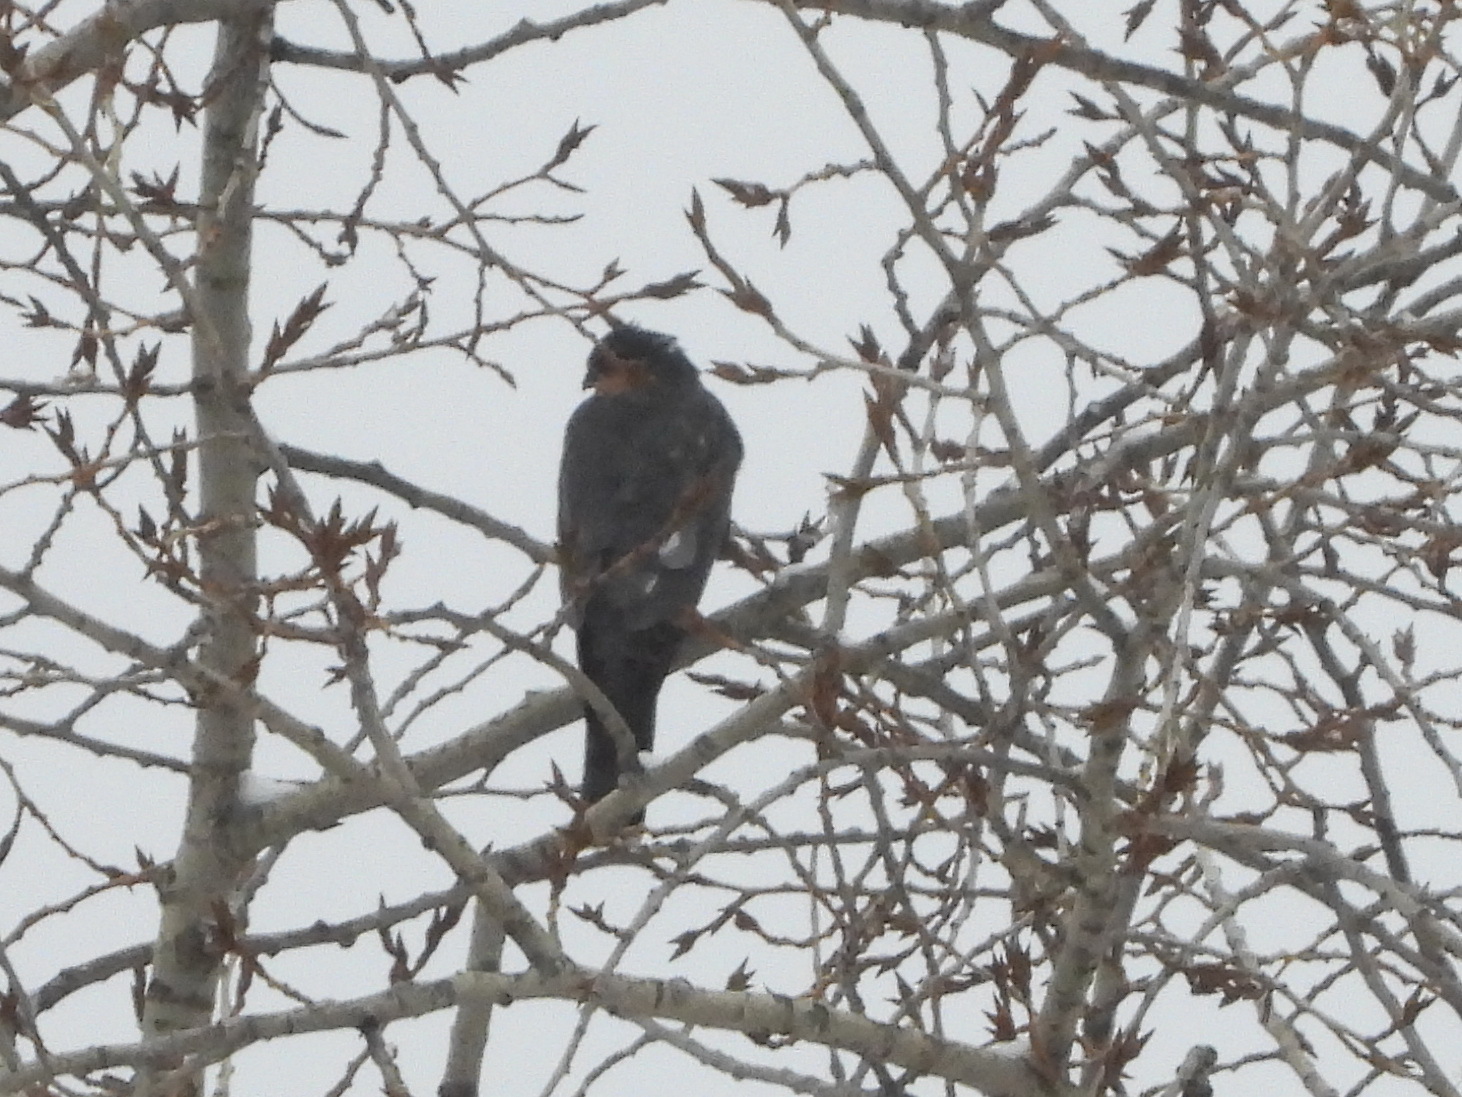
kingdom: Animalia
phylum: Chordata
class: Aves
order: Accipitriformes
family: Accipitridae
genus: Accipiter
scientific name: Accipiter nisus
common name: Eurasian sparrowhawk
